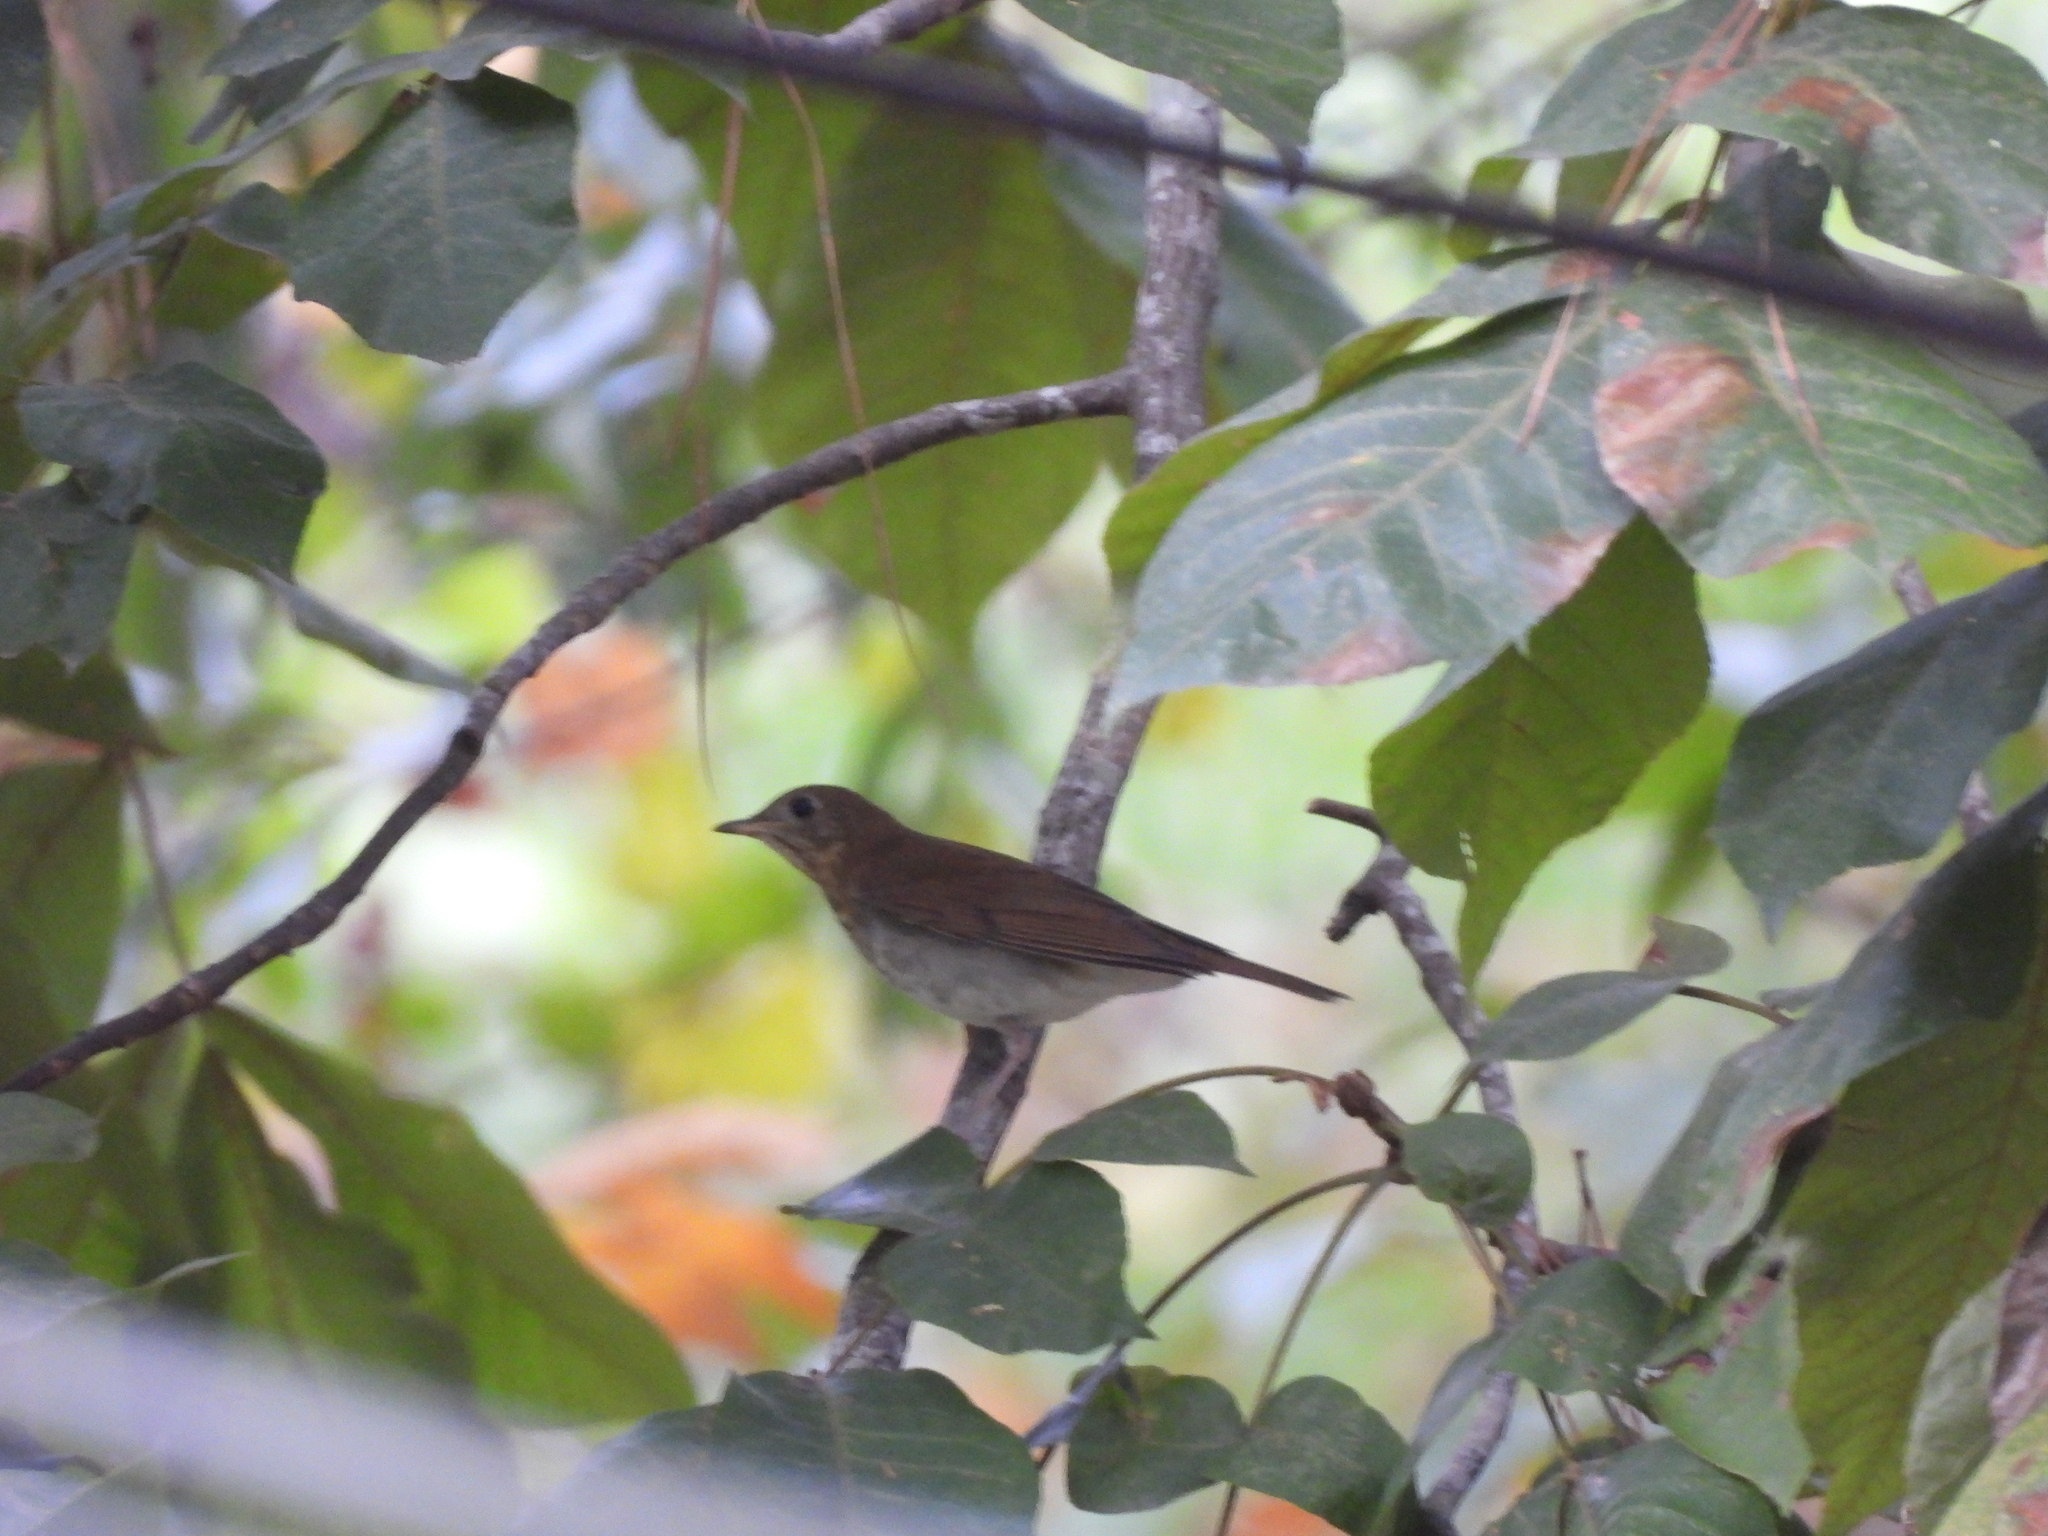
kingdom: Animalia
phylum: Chordata
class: Aves
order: Passeriformes
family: Turdidae
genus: Catharus
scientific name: Catharus fuscescens
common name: Veery
